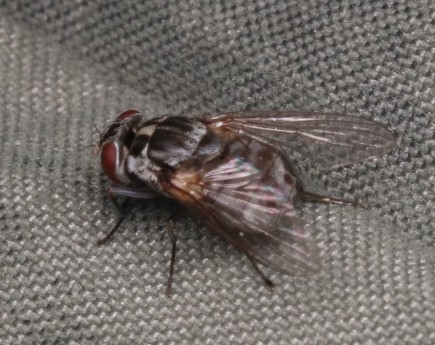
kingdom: Animalia
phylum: Arthropoda
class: Insecta
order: Diptera
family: Muscidae
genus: Stomoxys
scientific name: Stomoxys calcitrans
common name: Stable fly
